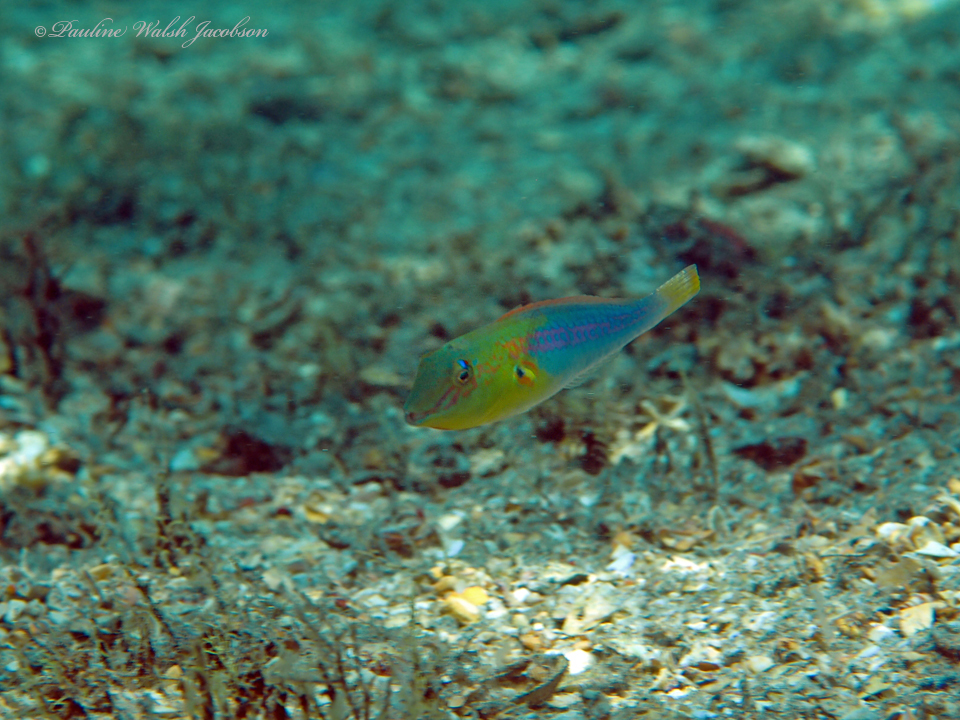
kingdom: Animalia
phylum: Chordata
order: Perciformes
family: Scaridae
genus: Cryptotomus
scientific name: Cryptotomus roseus
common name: Bluelip parrotfish
